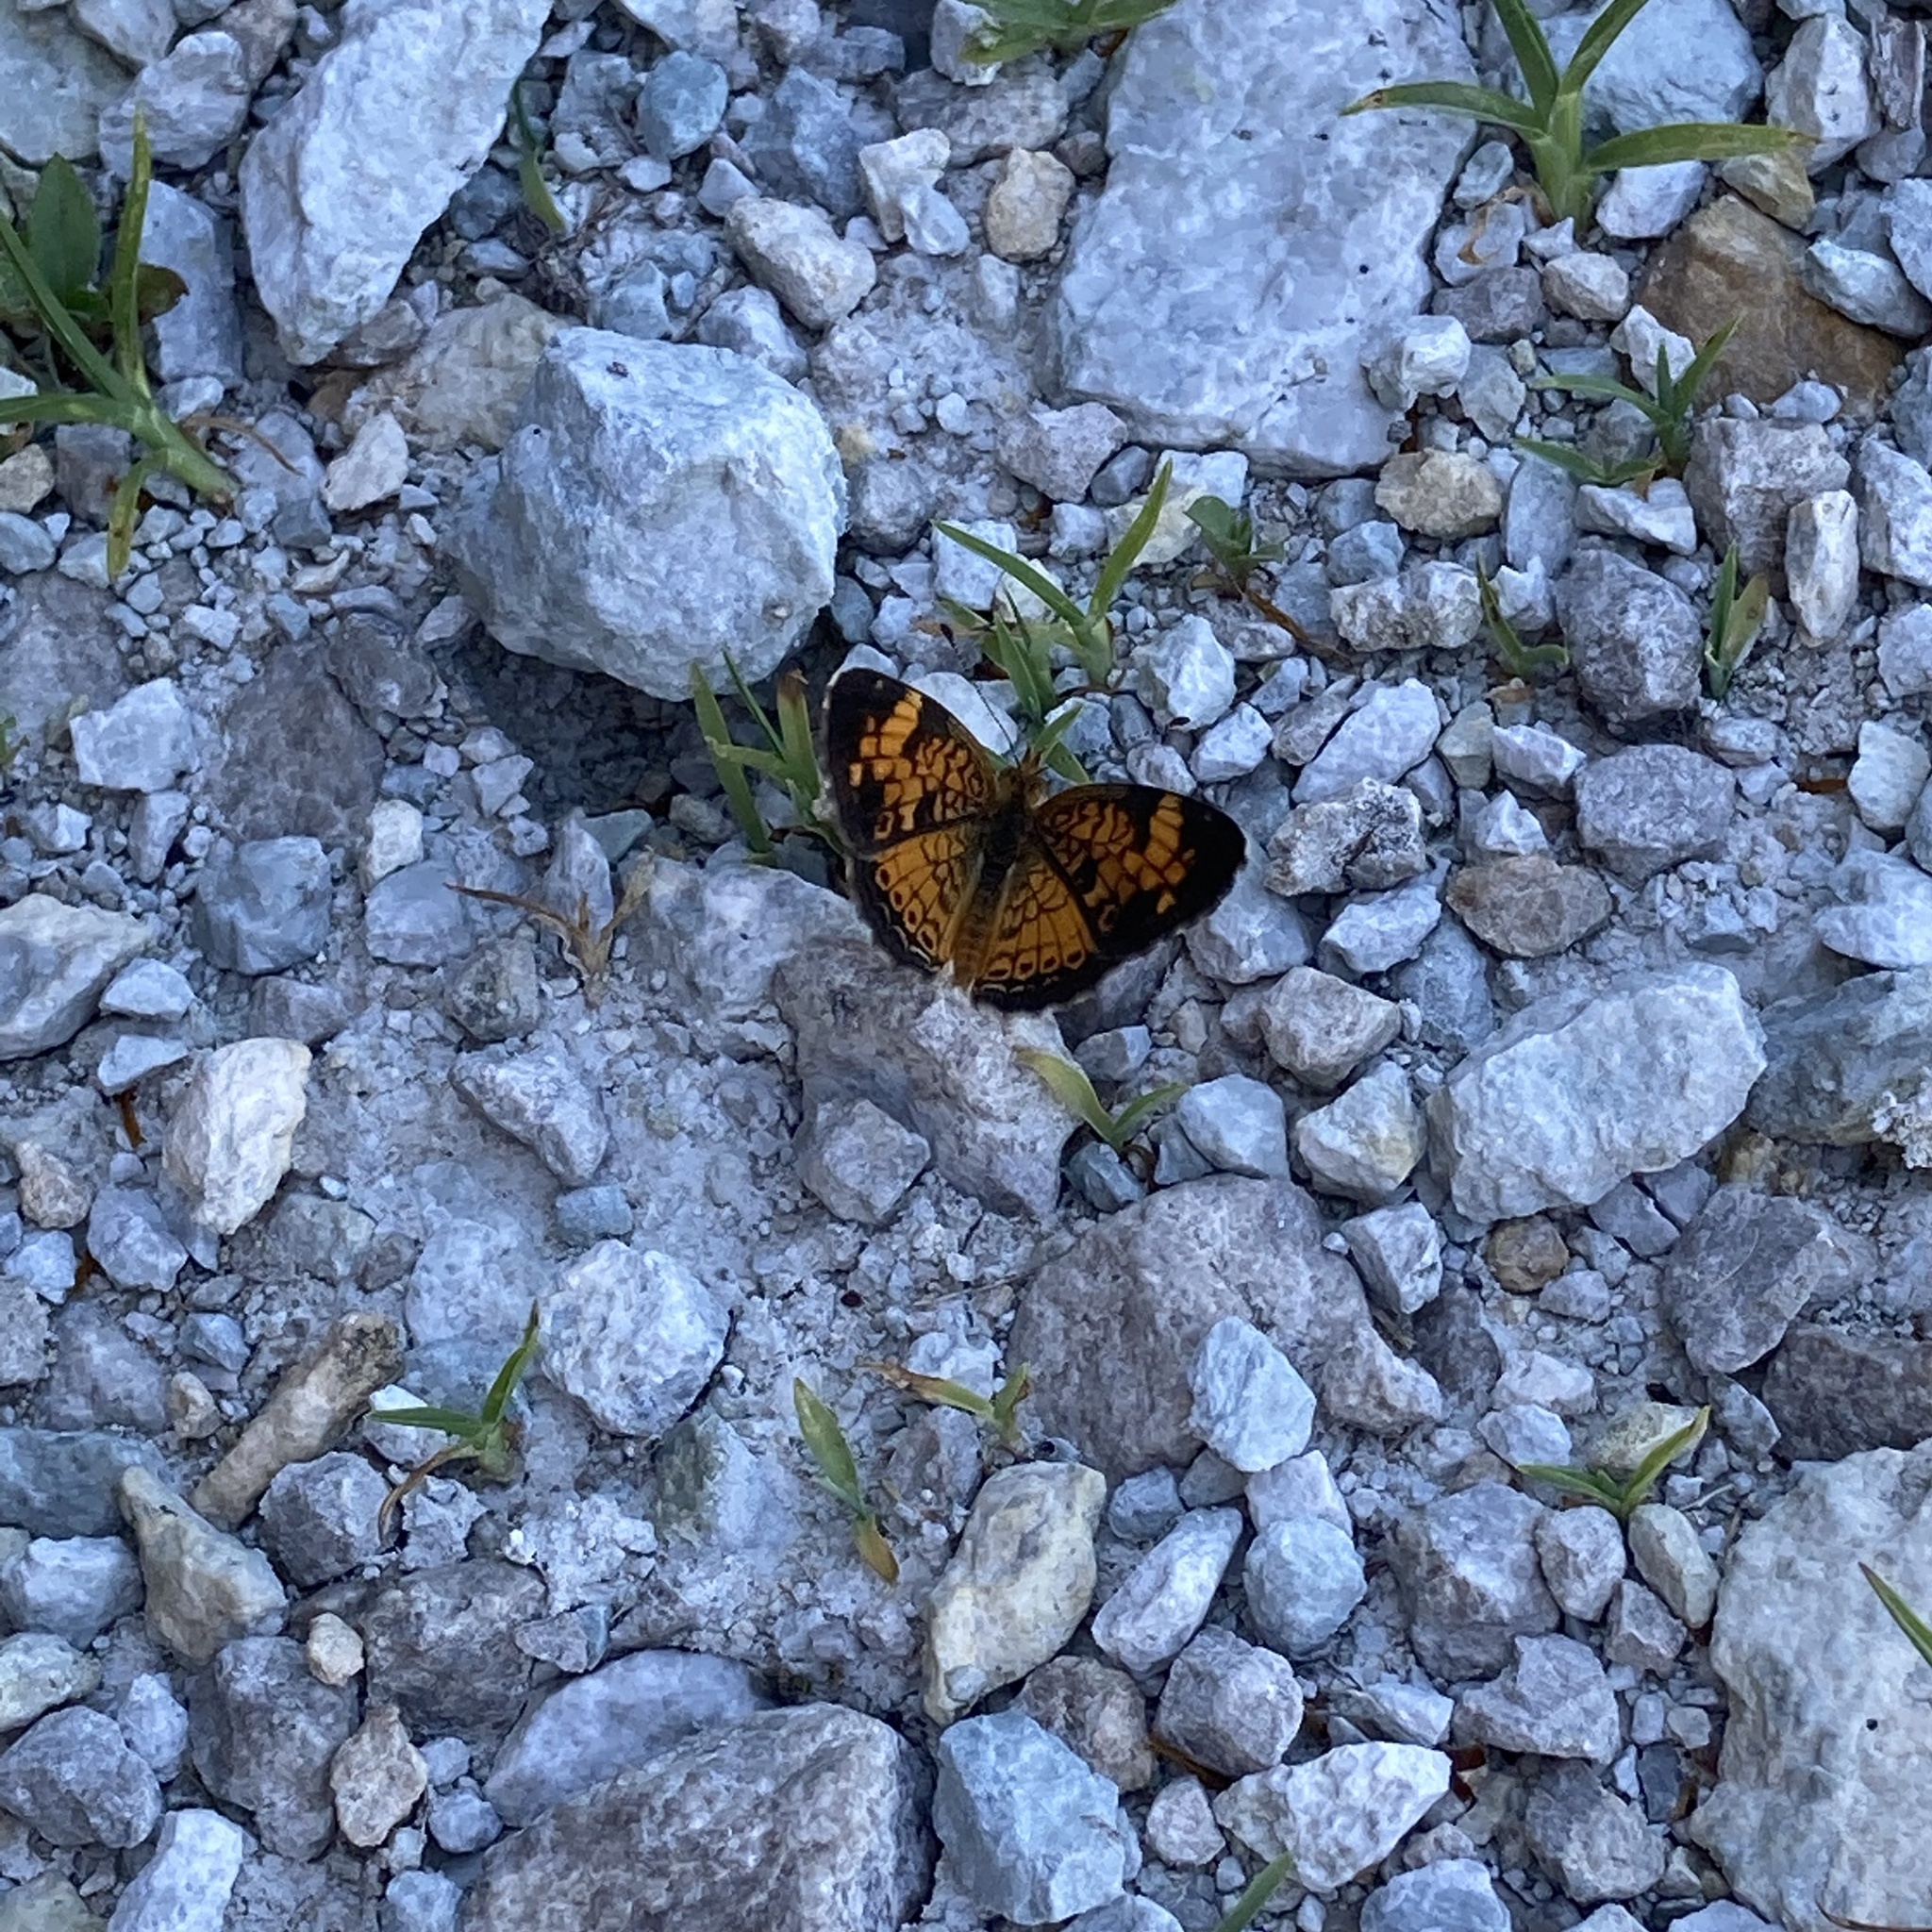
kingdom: Animalia
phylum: Arthropoda
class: Insecta
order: Lepidoptera
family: Nymphalidae
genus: Phyciodes
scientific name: Phyciodes tharos
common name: Pearl crescent
